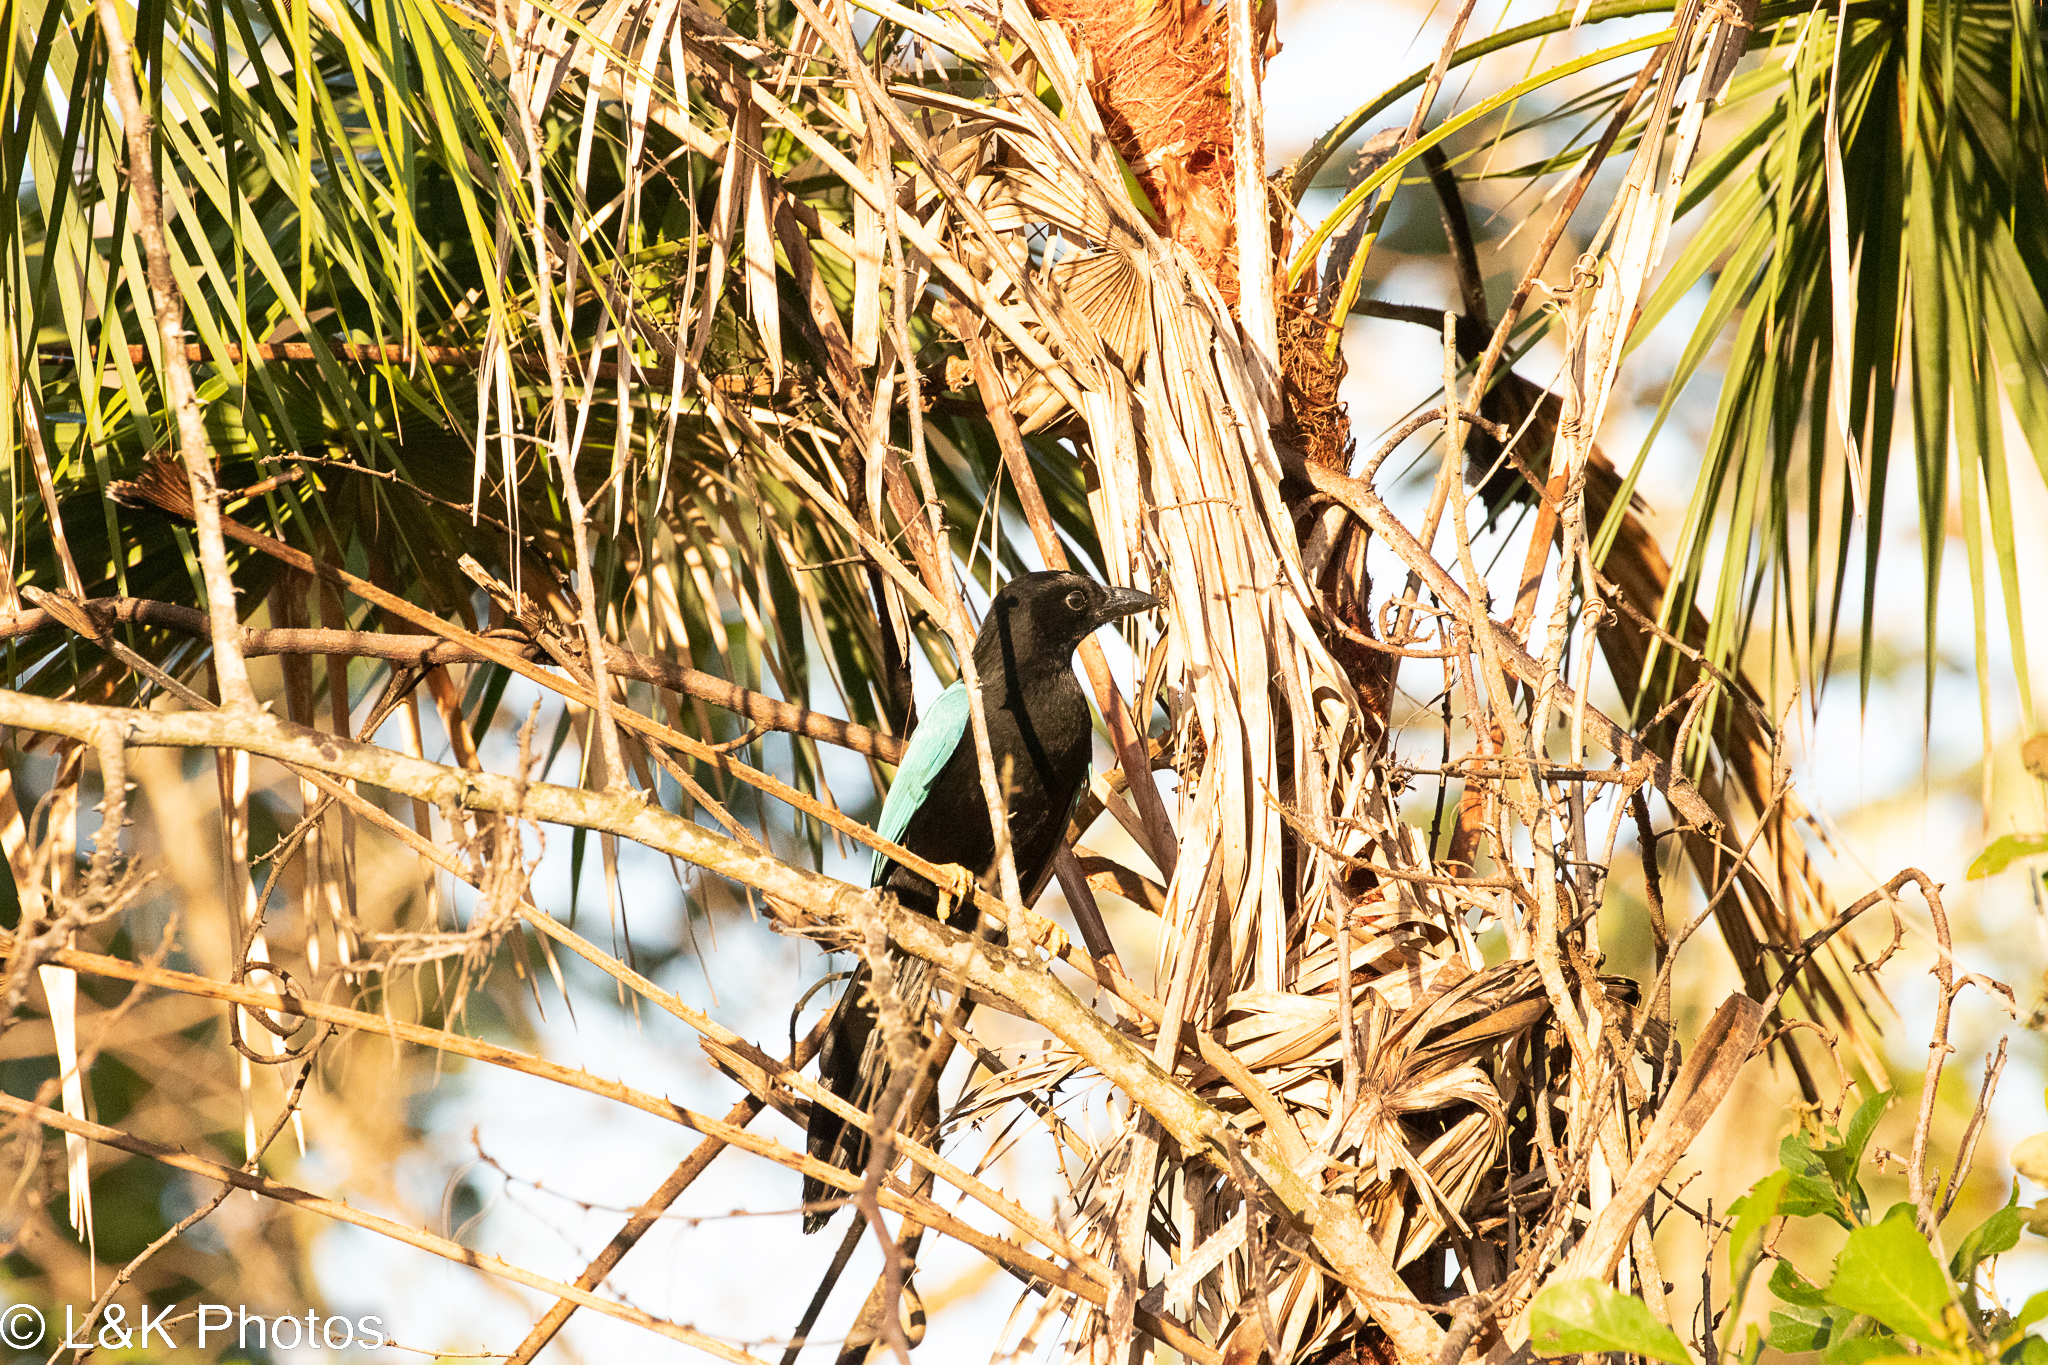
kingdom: Animalia
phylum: Chordata
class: Aves
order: Passeriformes
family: Corvidae
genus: Cyanocorax
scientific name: Cyanocorax yucatanicus
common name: Yucatan jay
